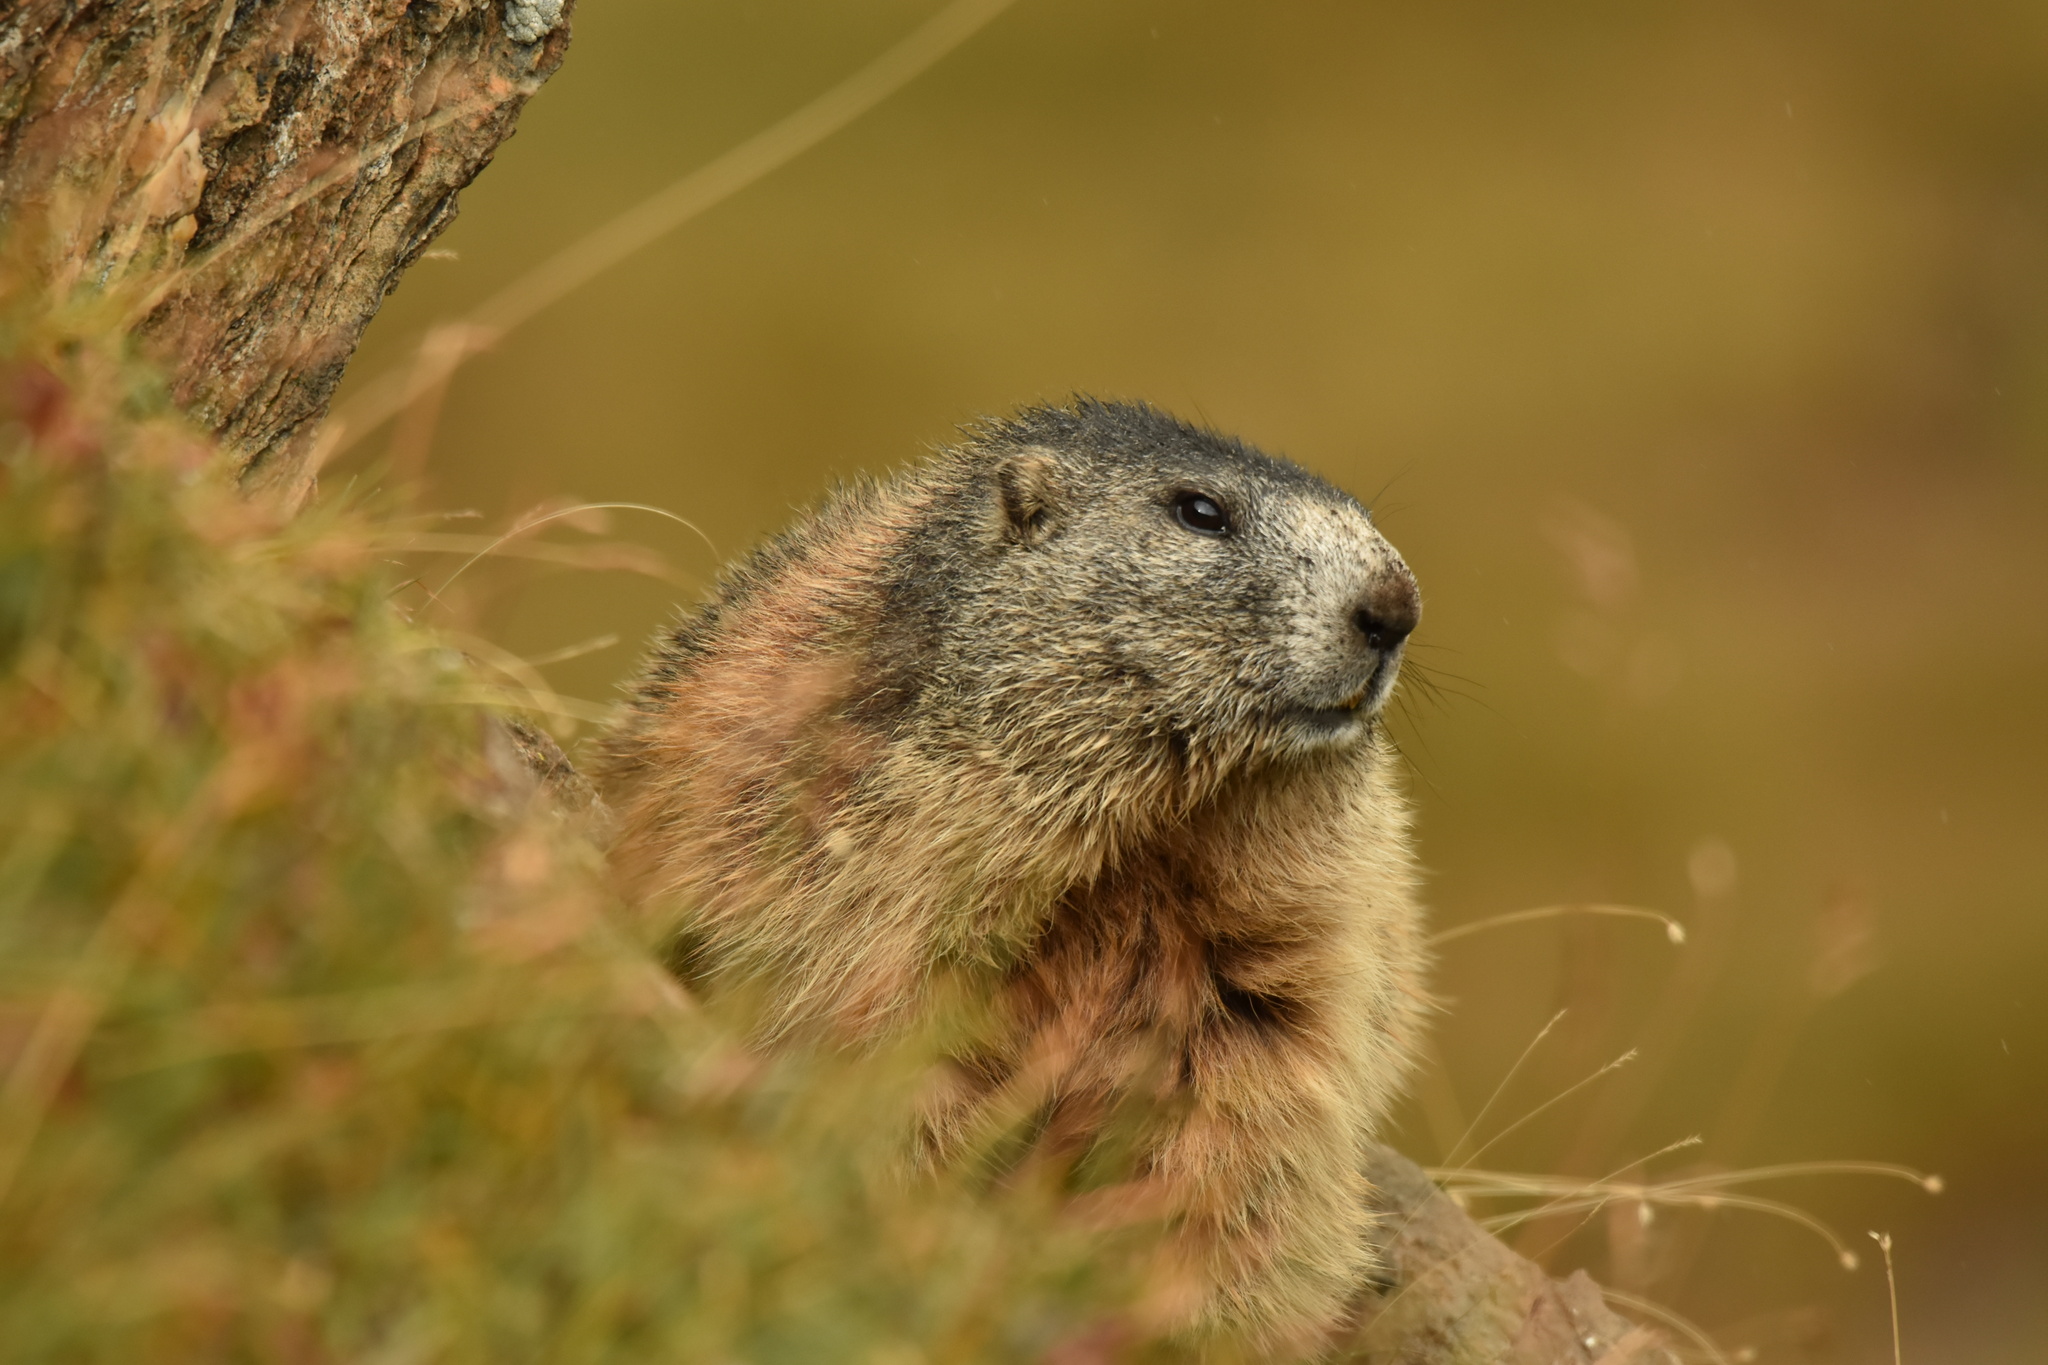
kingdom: Animalia
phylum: Chordata
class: Mammalia
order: Rodentia
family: Sciuridae
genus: Marmota
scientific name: Marmota marmota
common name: Alpine marmot
